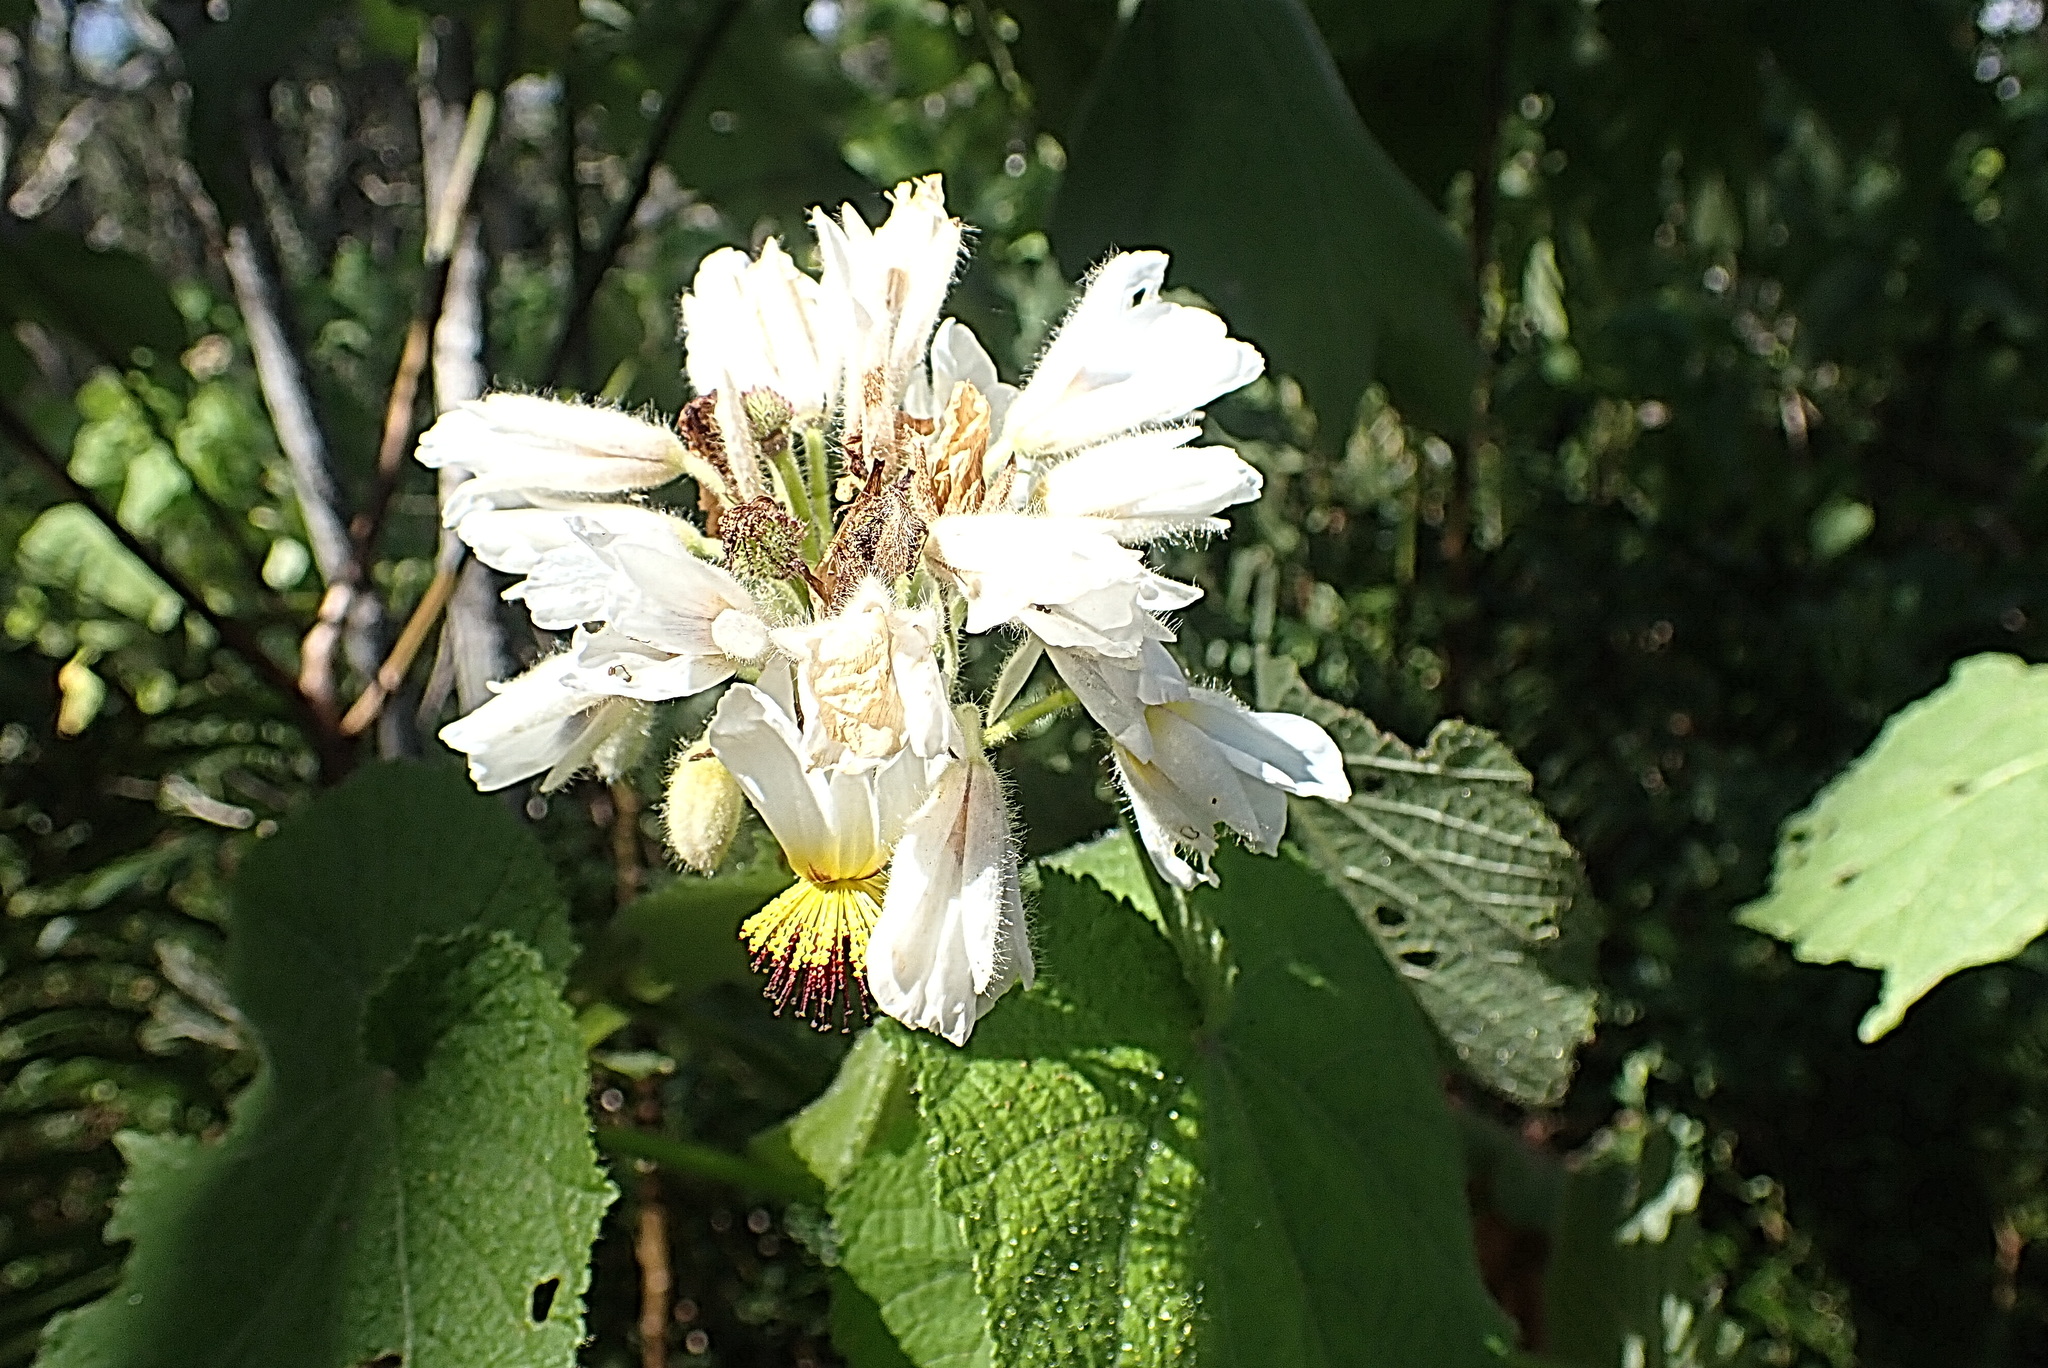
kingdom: Plantae
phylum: Tracheophyta
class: Magnoliopsida
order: Malvales
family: Malvaceae
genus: Sparrmannia
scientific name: Sparrmannia africana
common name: African-hemp
